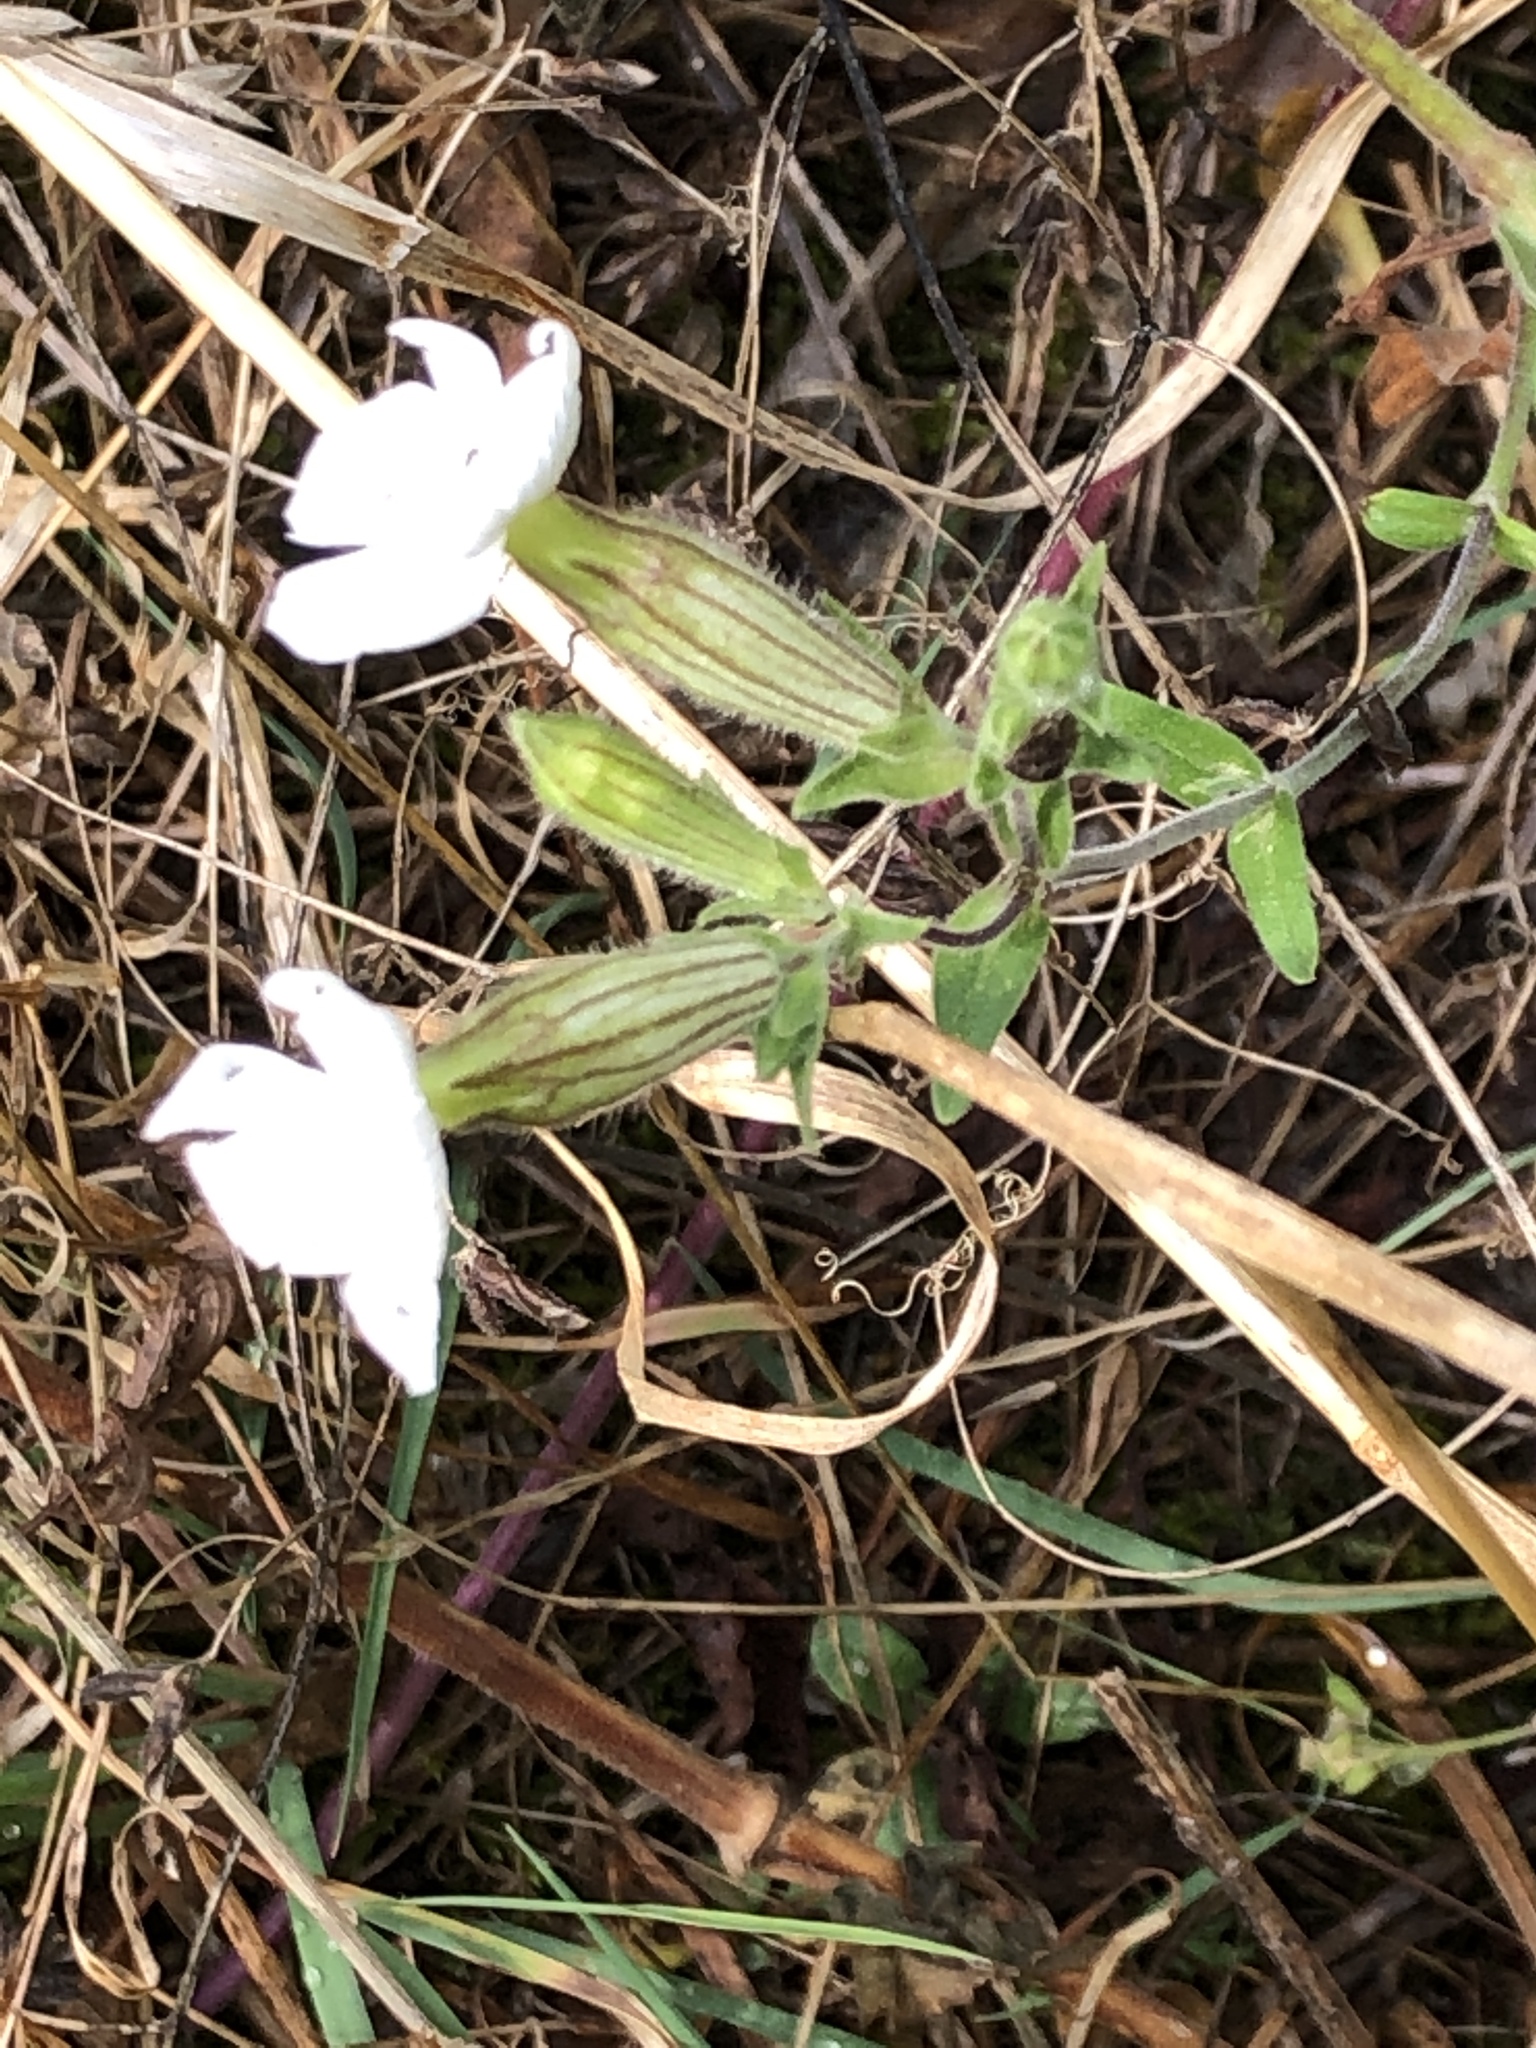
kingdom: Plantae
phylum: Tracheophyta
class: Magnoliopsida
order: Caryophyllales
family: Caryophyllaceae
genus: Silene
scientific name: Silene latifolia
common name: White campion
